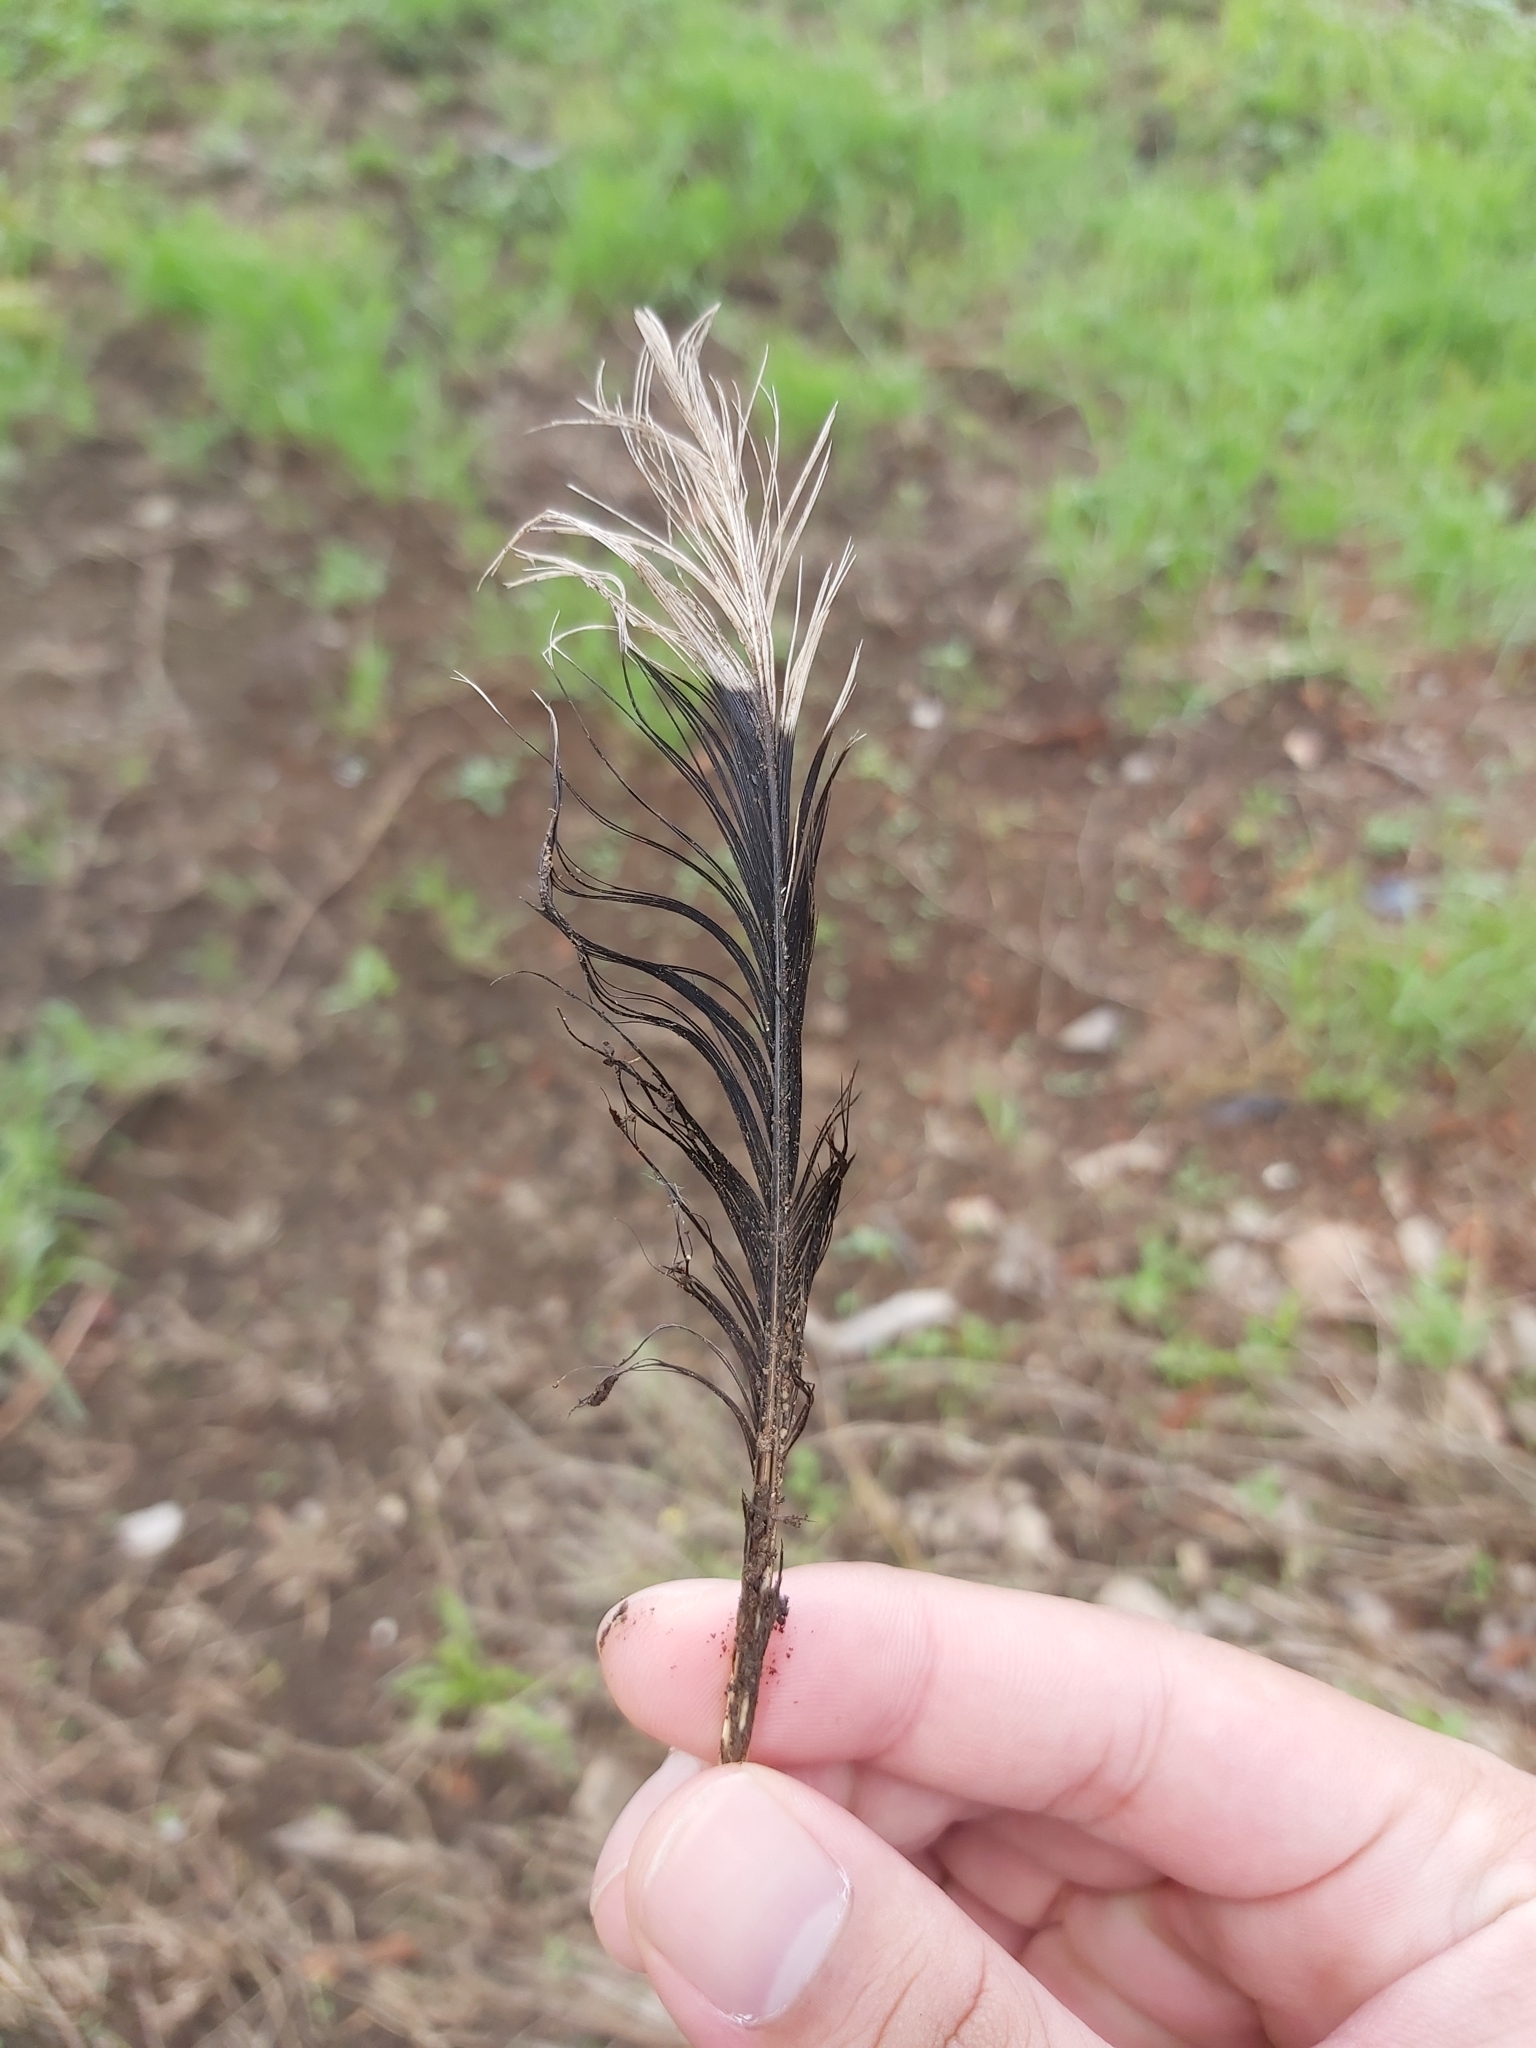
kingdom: Animalia
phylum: Chordata
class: Aves
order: Columbiformes
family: Columbidae
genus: Spilopelia
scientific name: Spilopelia chinensis
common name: Spotted dove
